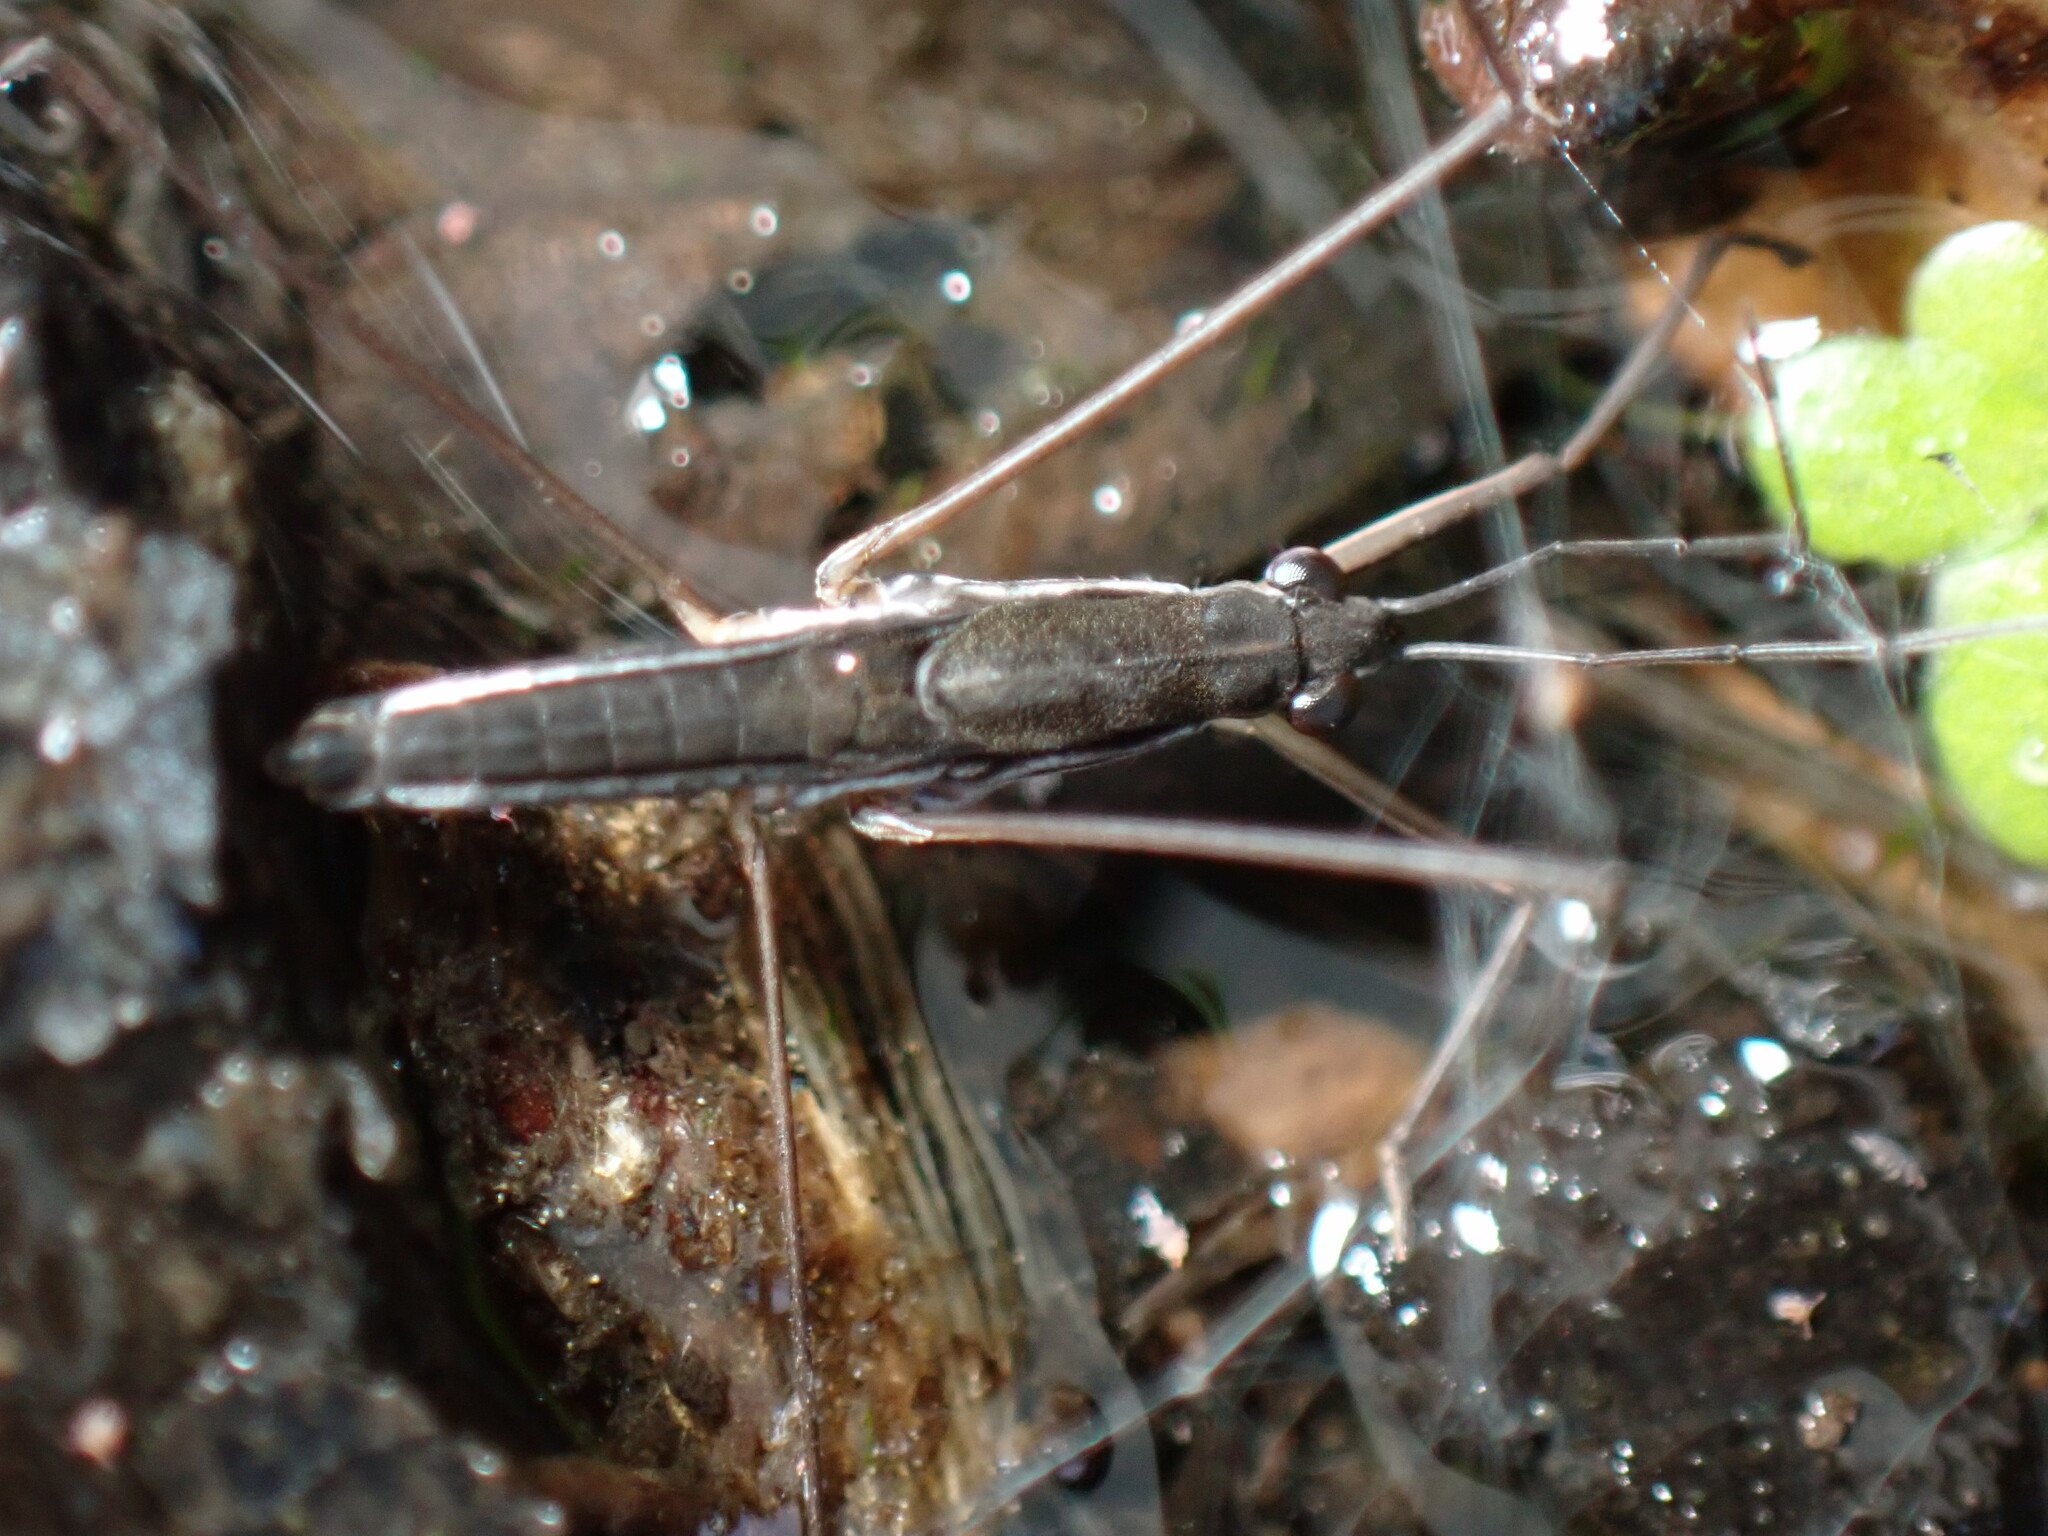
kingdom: Animalia
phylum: Arthropoda
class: Insecta
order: Hemiptera
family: Gerridae
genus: Limnoporus
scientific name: Limnoporus canaliculatus
